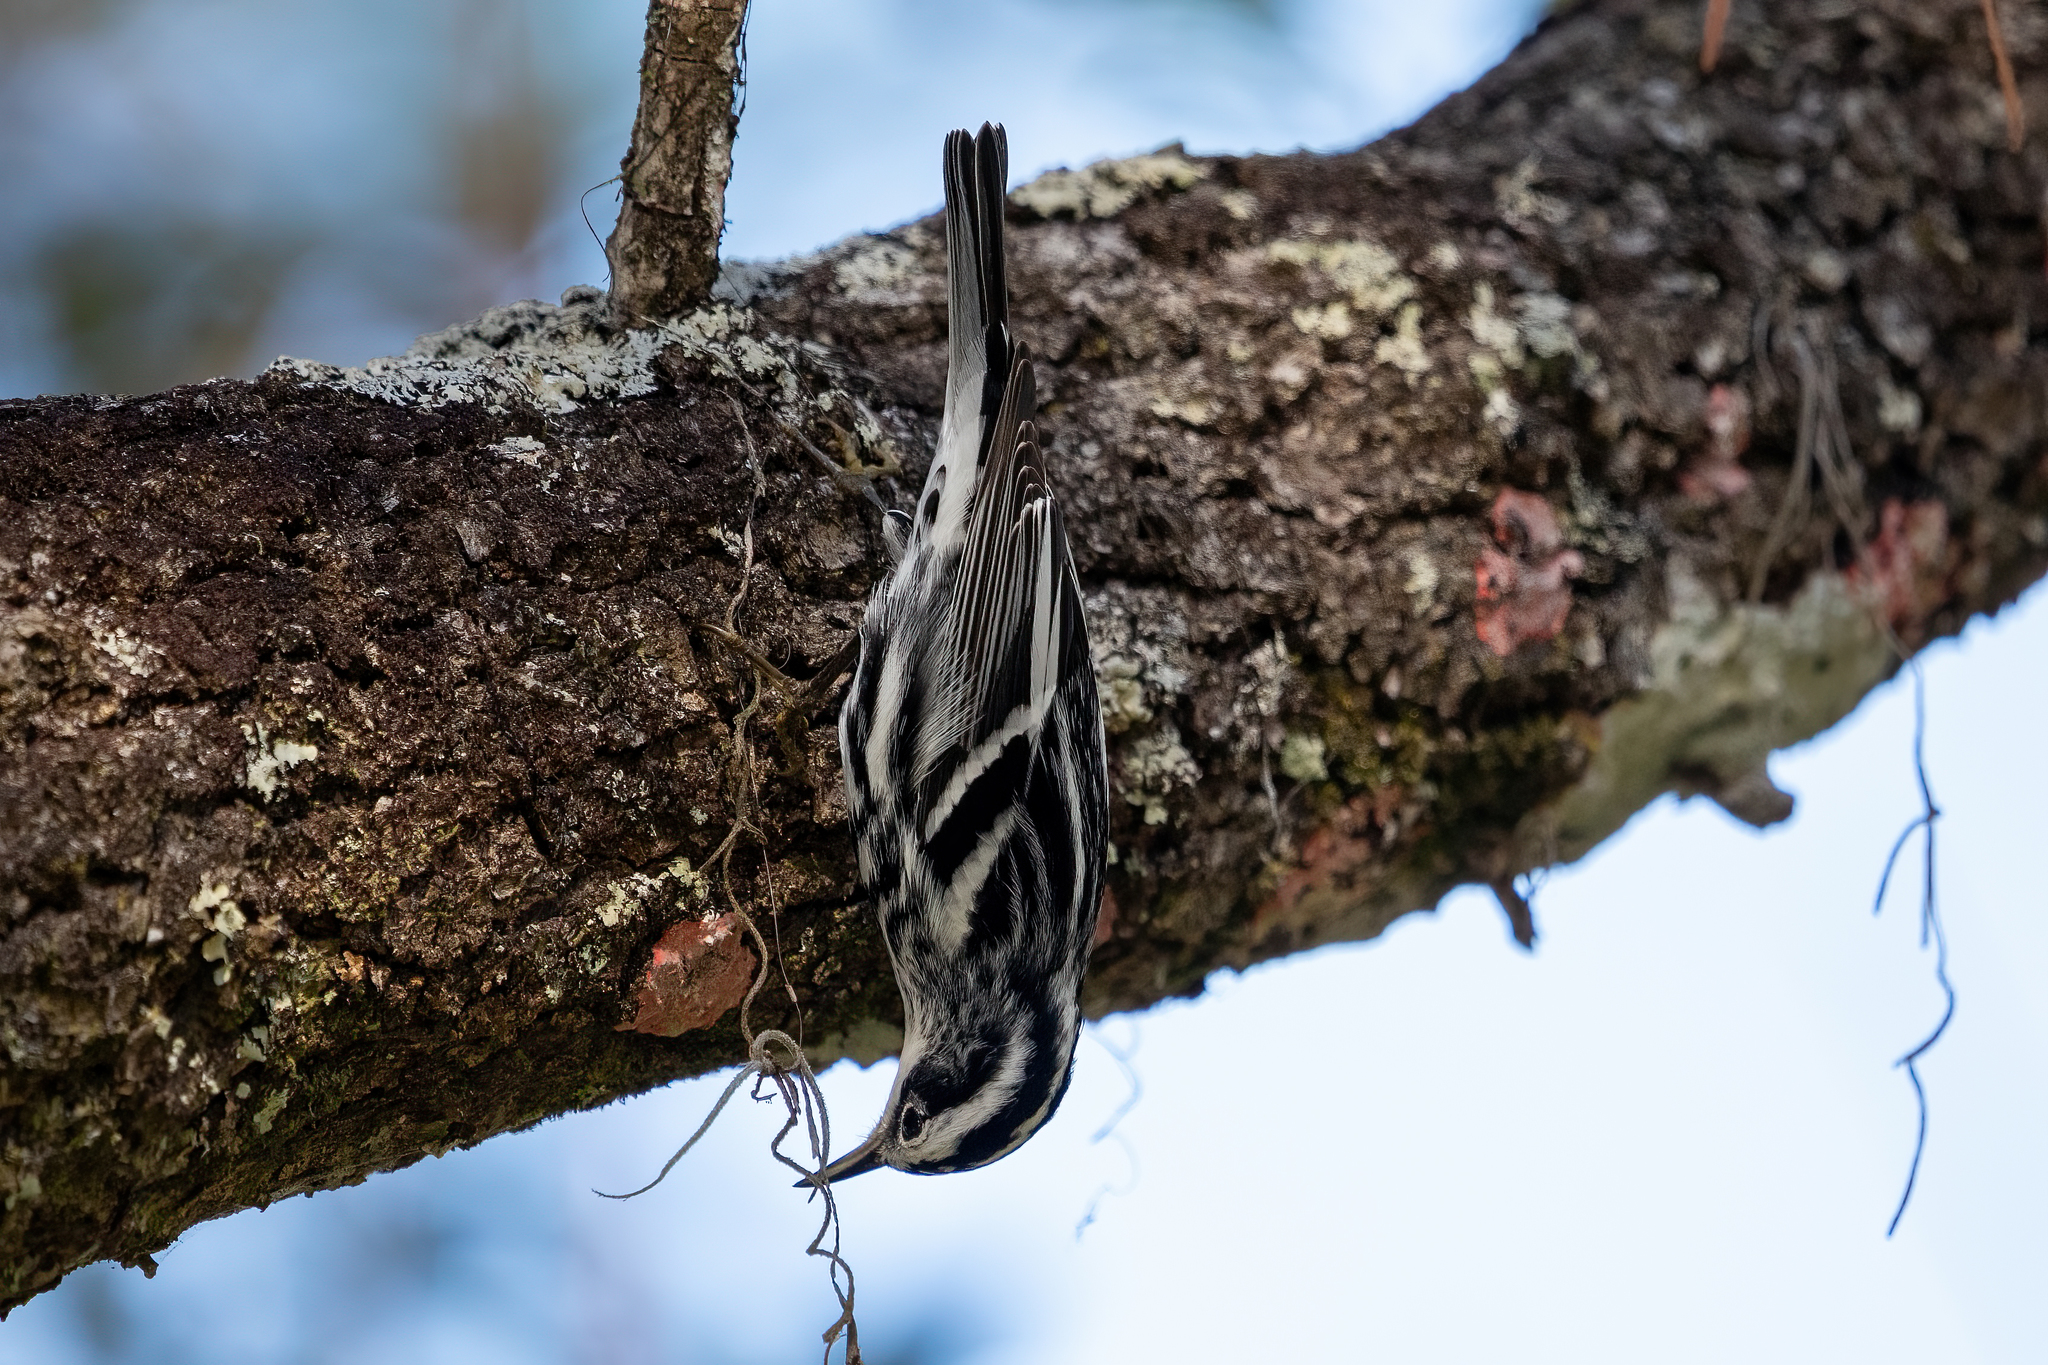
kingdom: Animalia
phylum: Chordata
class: Aves
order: Passeriformes
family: Parulidae
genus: Mniotilta
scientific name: Mniotilta varia
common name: Black-and-white warbler
